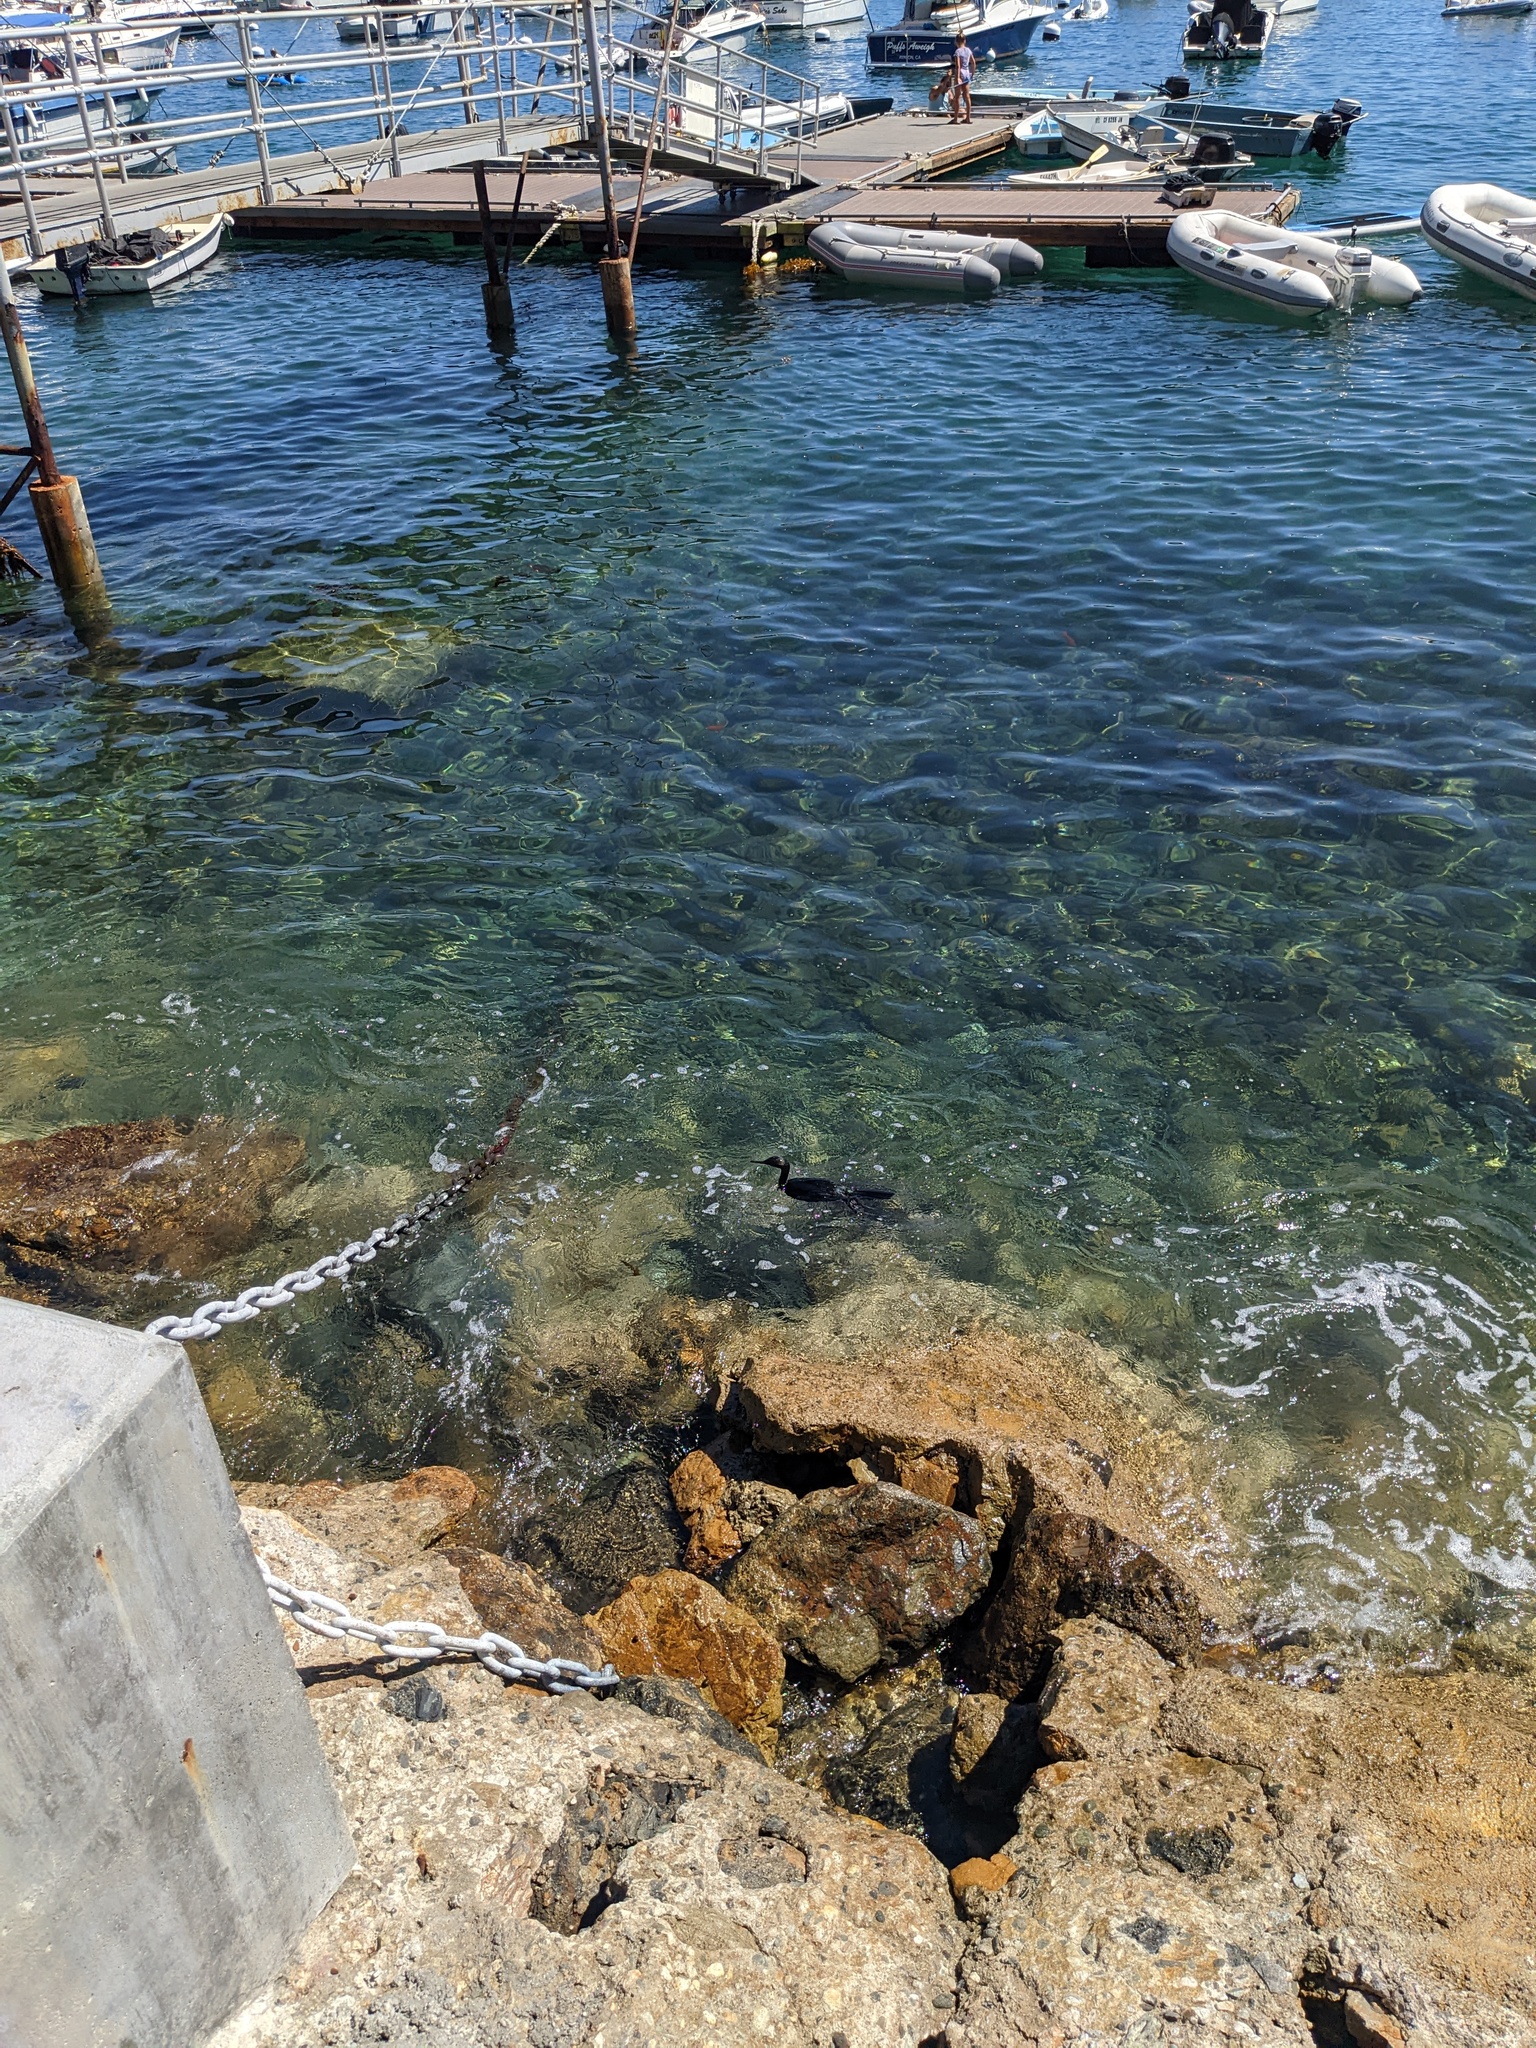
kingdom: Animalia
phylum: Chordata
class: Aves
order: Suliformes
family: Phalacrocoracidae
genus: Phalacrocorax
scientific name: Phalacrocorax pelagicus
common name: Pelagic cormorant
